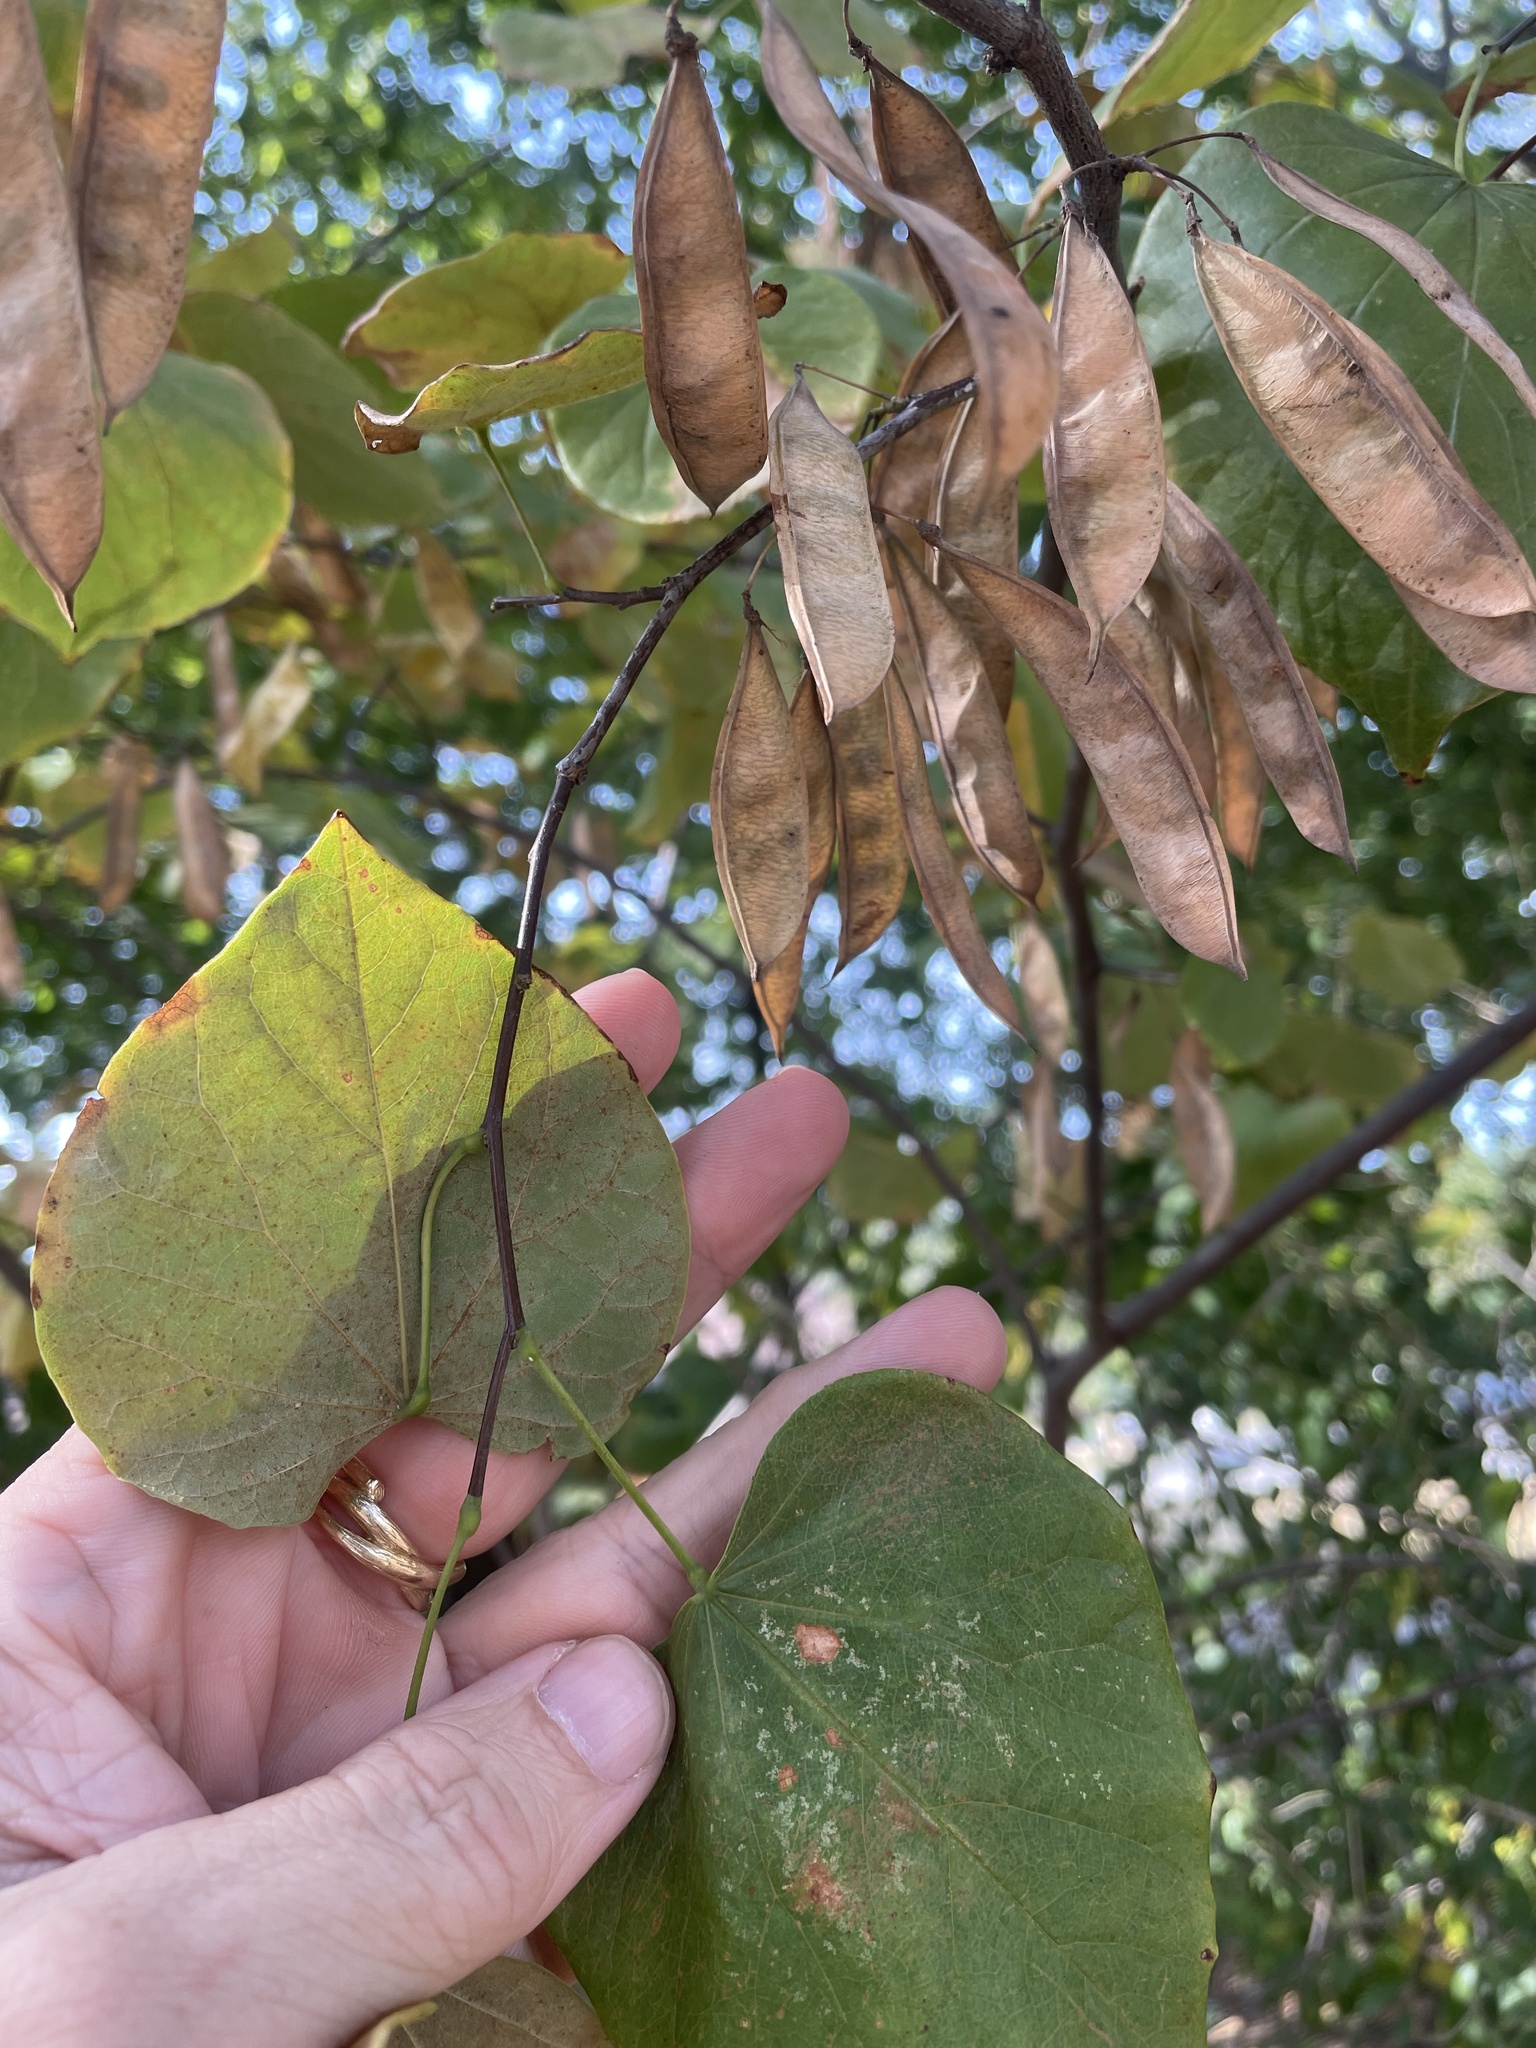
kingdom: Plantae
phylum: Tracheophyta
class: Magnoliopsida
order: Fabales
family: Fabaceae
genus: Cercis
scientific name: Cercis canadensis
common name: Eastern redbud
